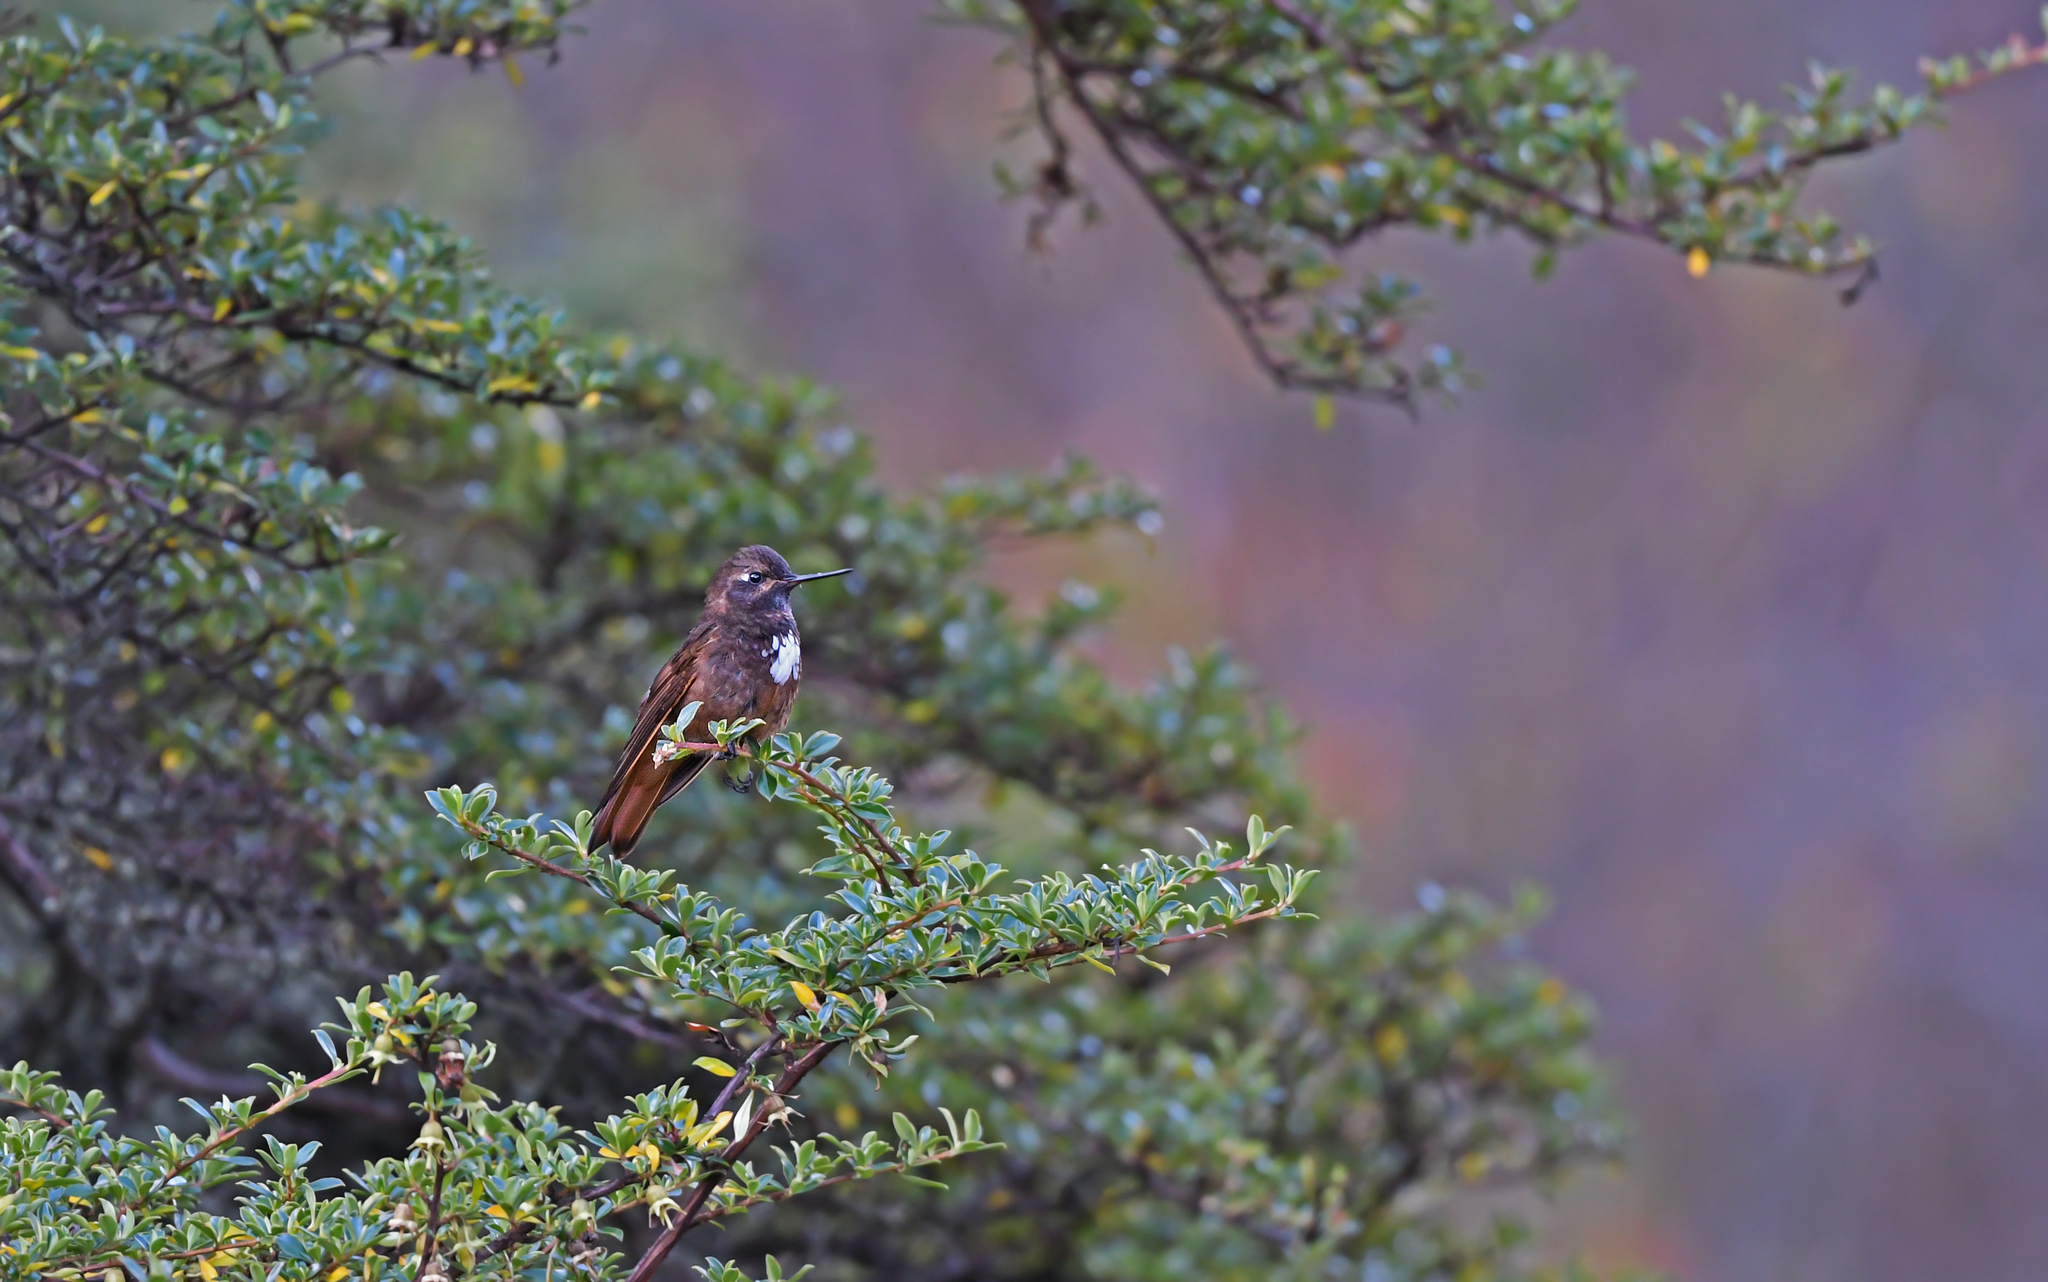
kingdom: Animalia
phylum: Chordata
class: Aves
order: Apodiformes
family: Trochilidae
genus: Aglaeactis
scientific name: Aglaeactis castelnaudii
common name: White-tufted sunbeam
